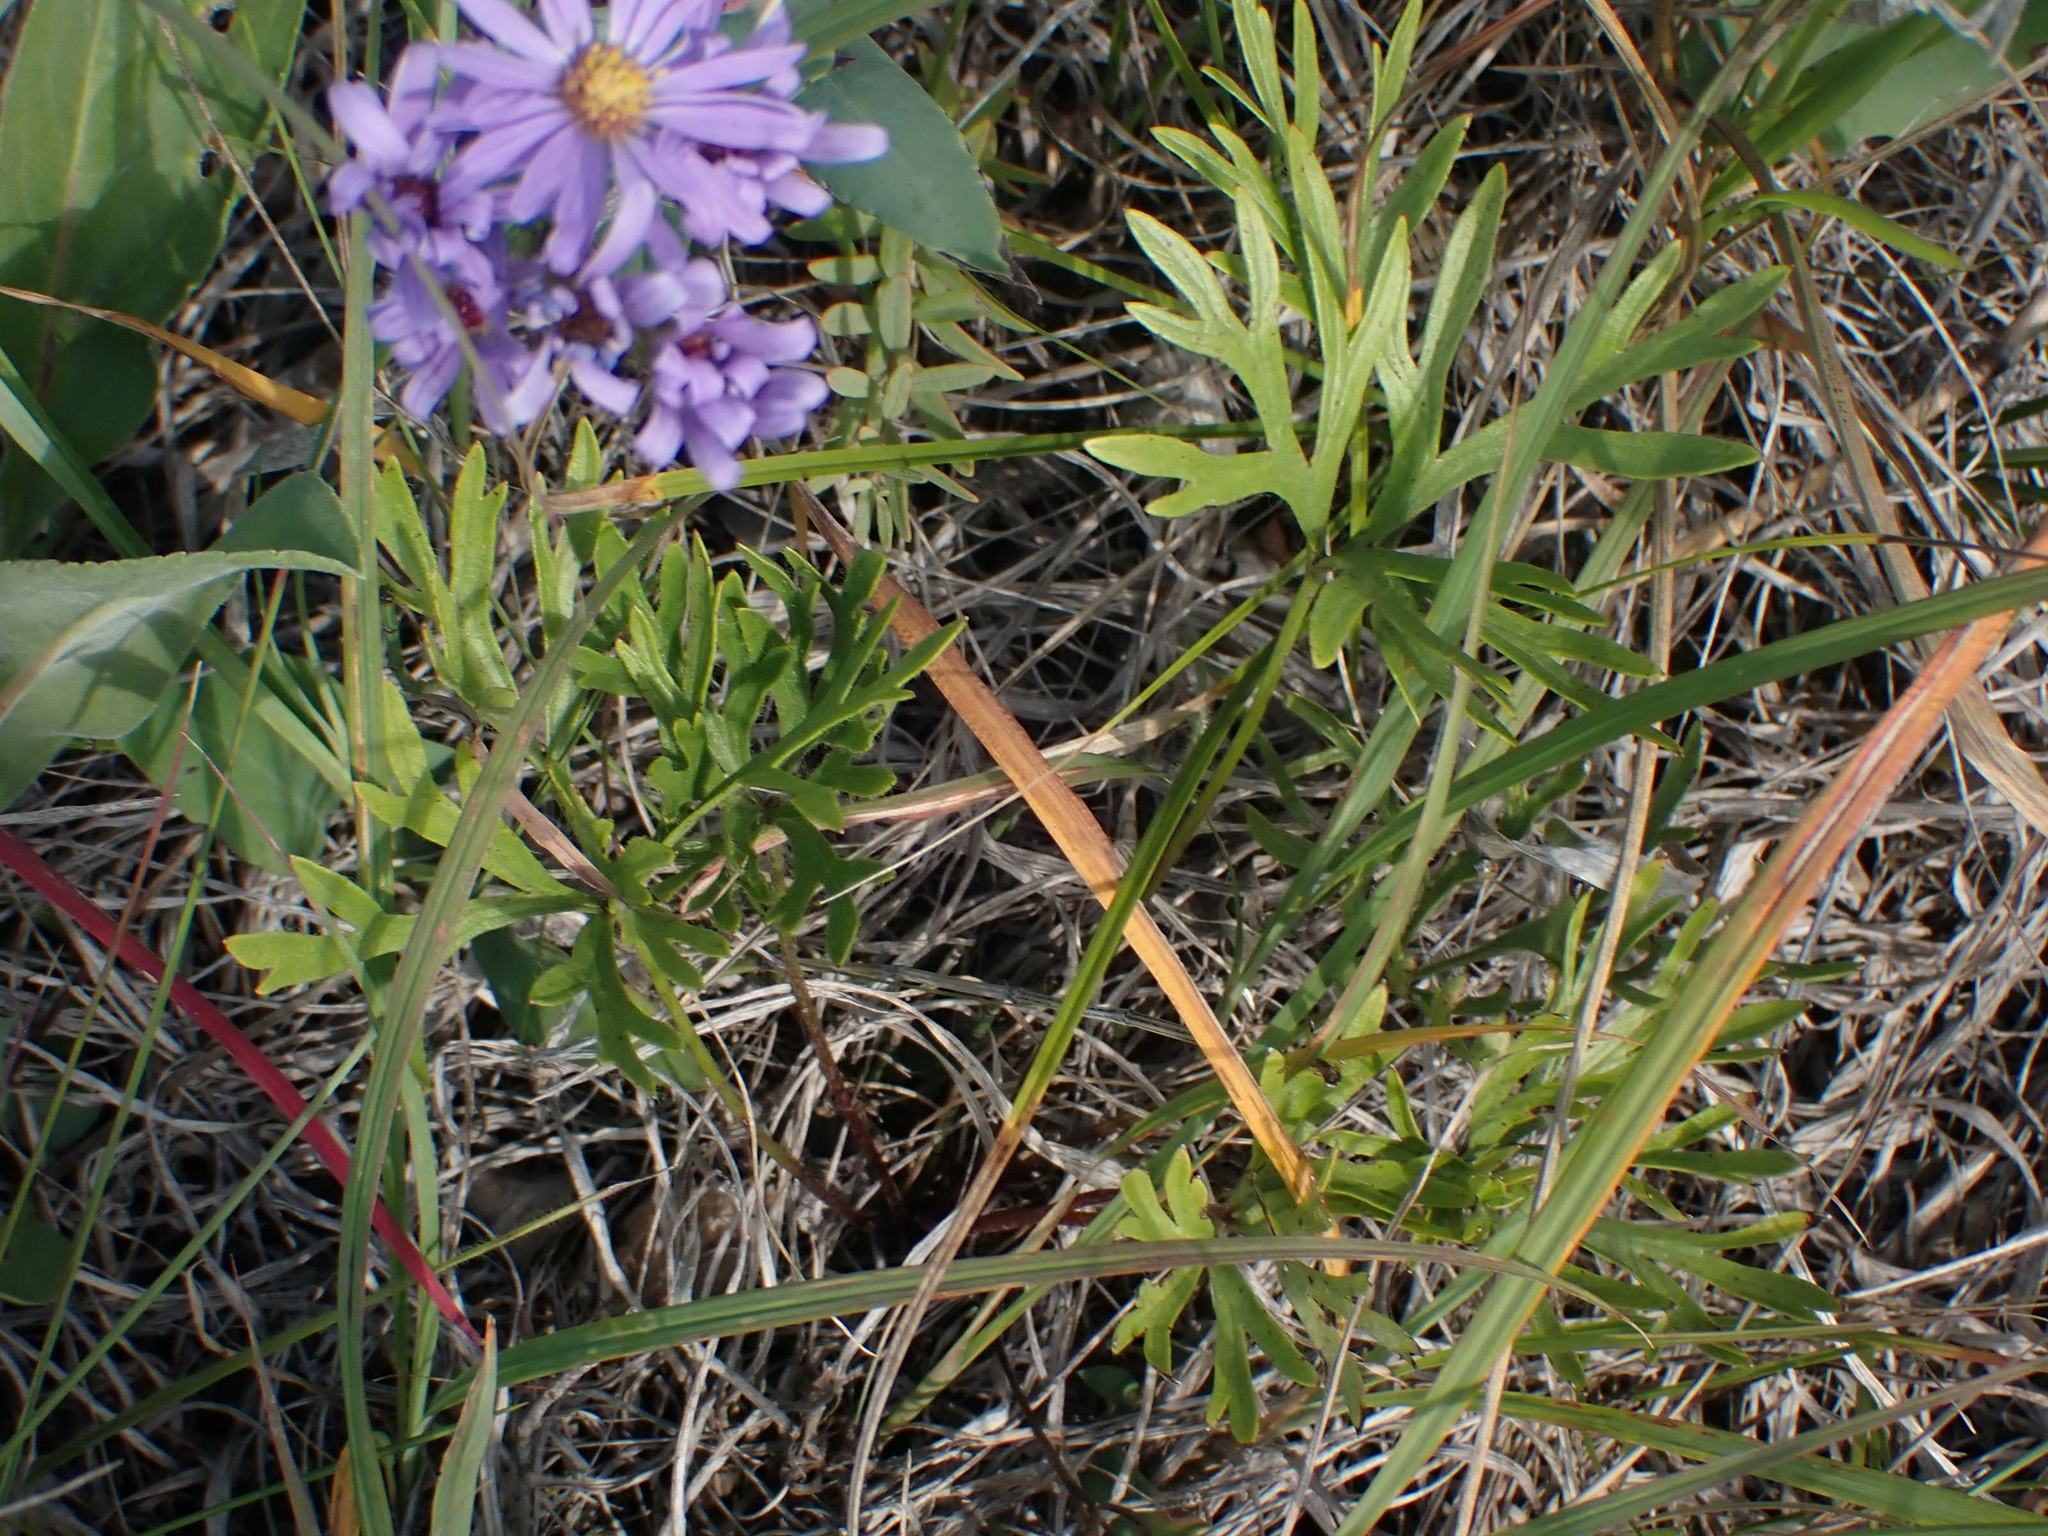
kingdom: Plantae
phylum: Tracheophyta
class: Magnoliopsida
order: Ranunculales
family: Ranunculaceae
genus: Pulsatilla
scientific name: Pulsatilla nuttalliana
